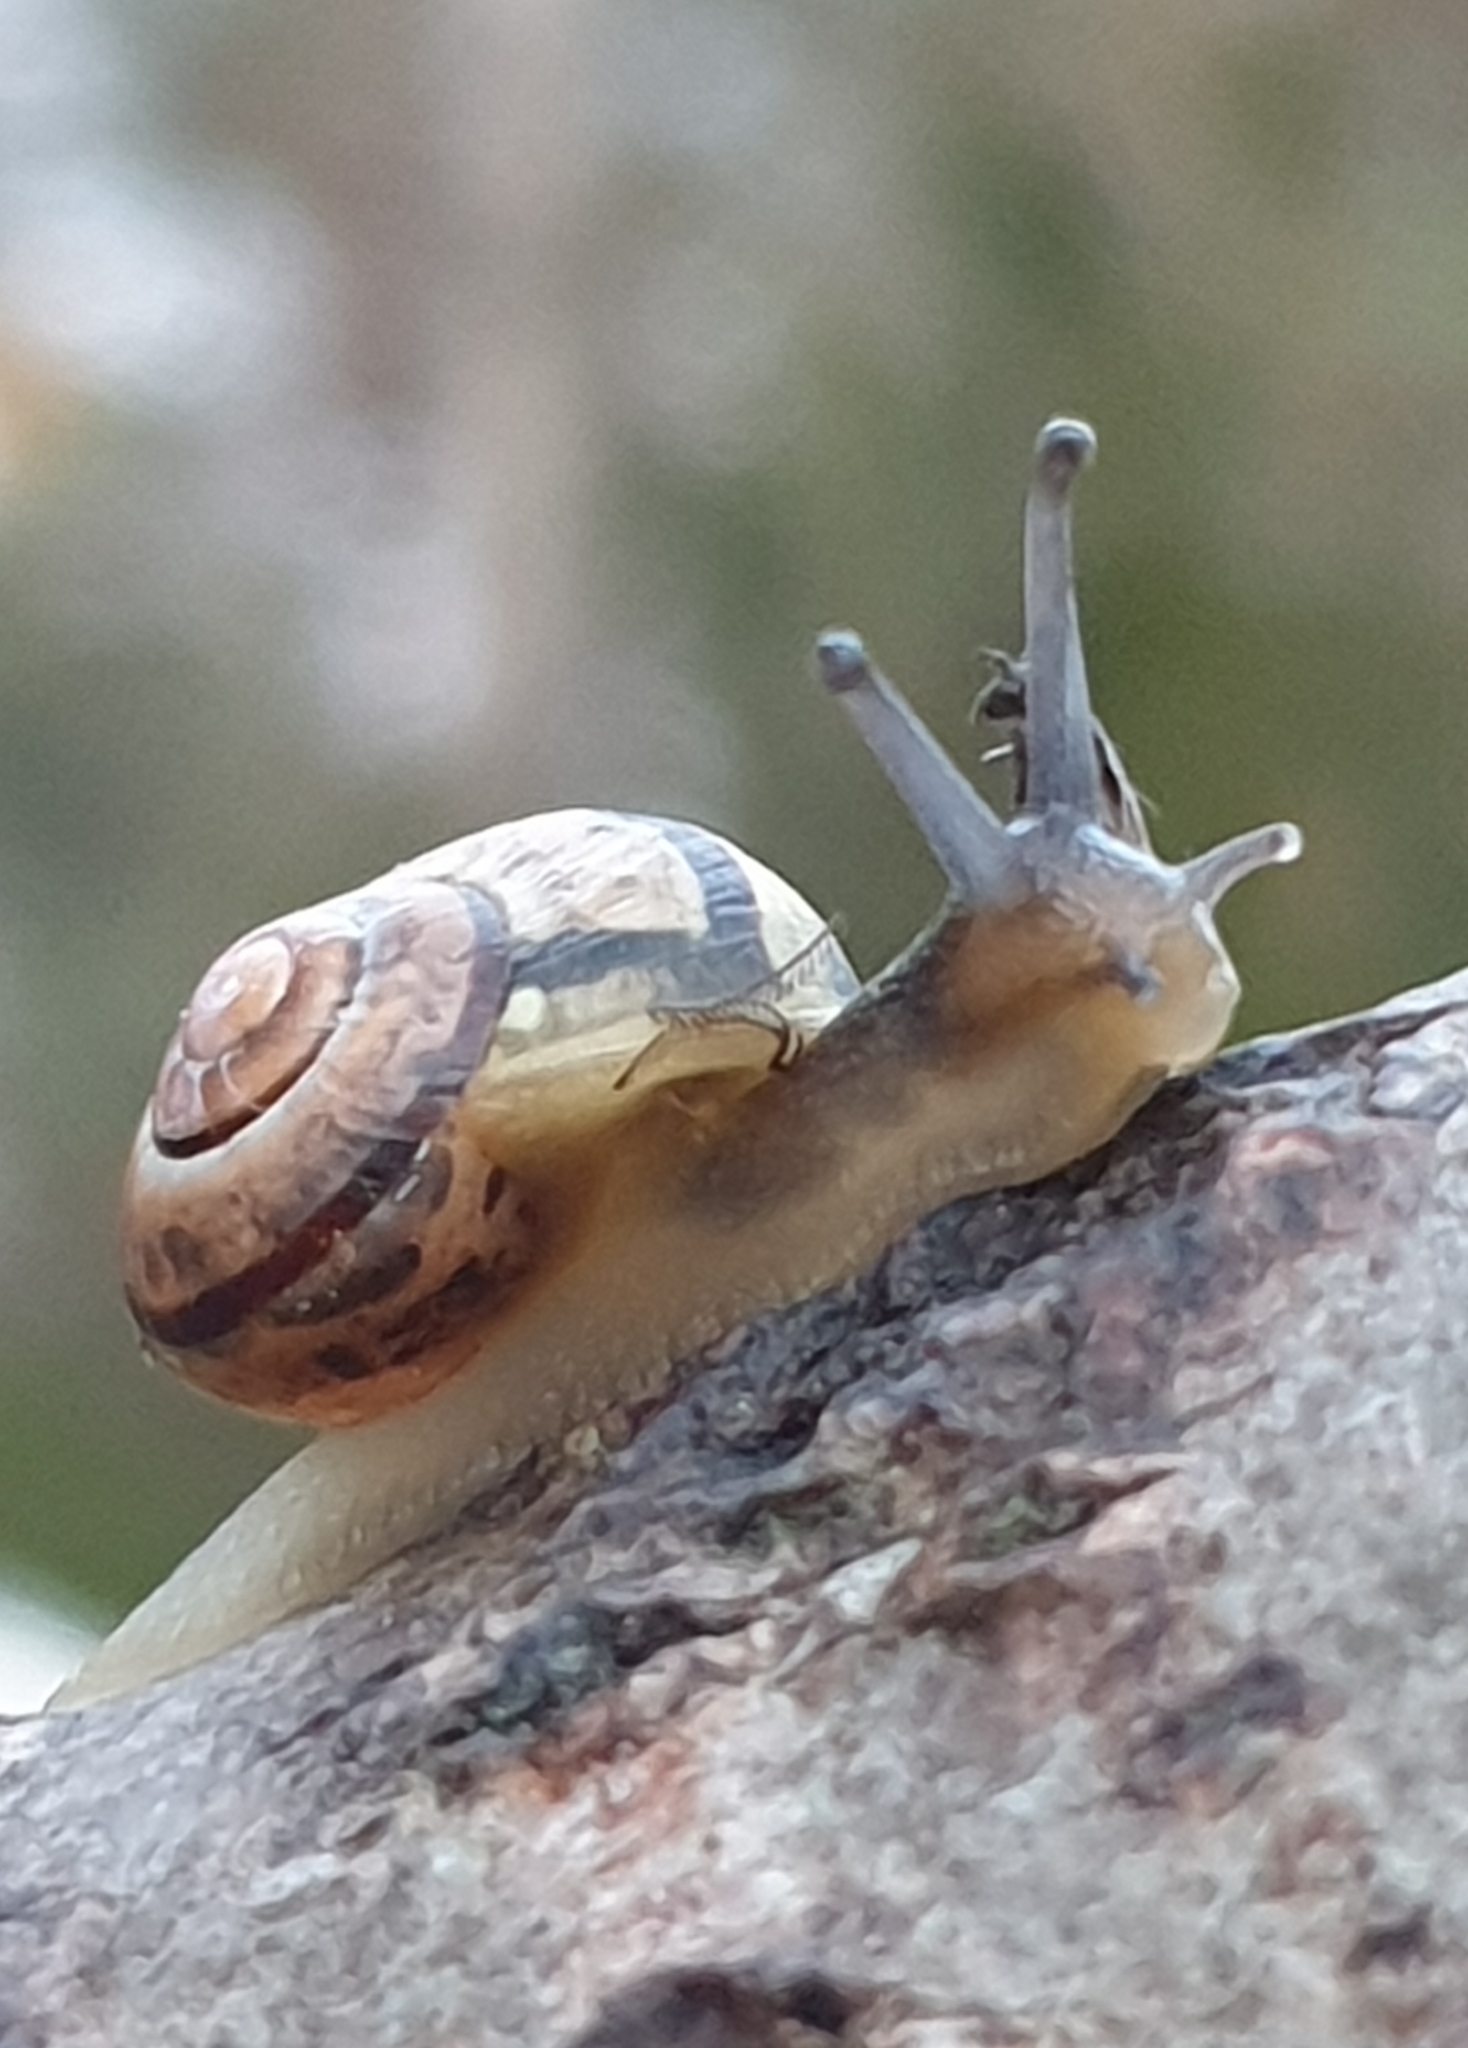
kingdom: Animalia
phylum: Mollusca
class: Gastropoda
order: Stylommatophora
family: Helicidae
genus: Cepaea
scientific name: Cepaea hortensis
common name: White-lip gardensnail
